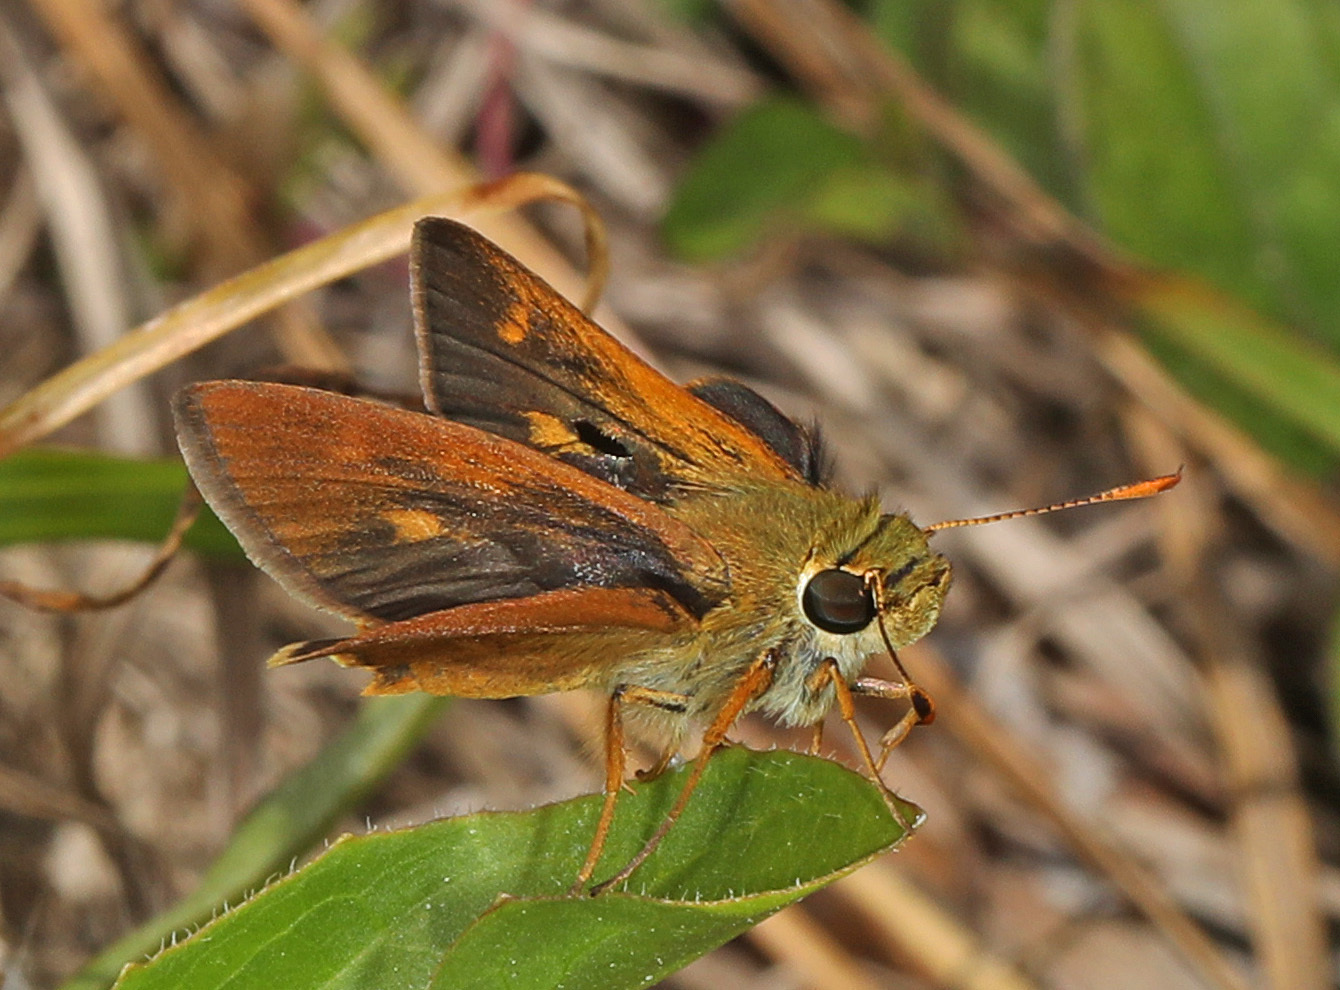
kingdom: Animalia
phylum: Arthropoda
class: Insecta
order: Lepidoptera
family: Hesperiidae
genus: Polites
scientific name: Polites otho
